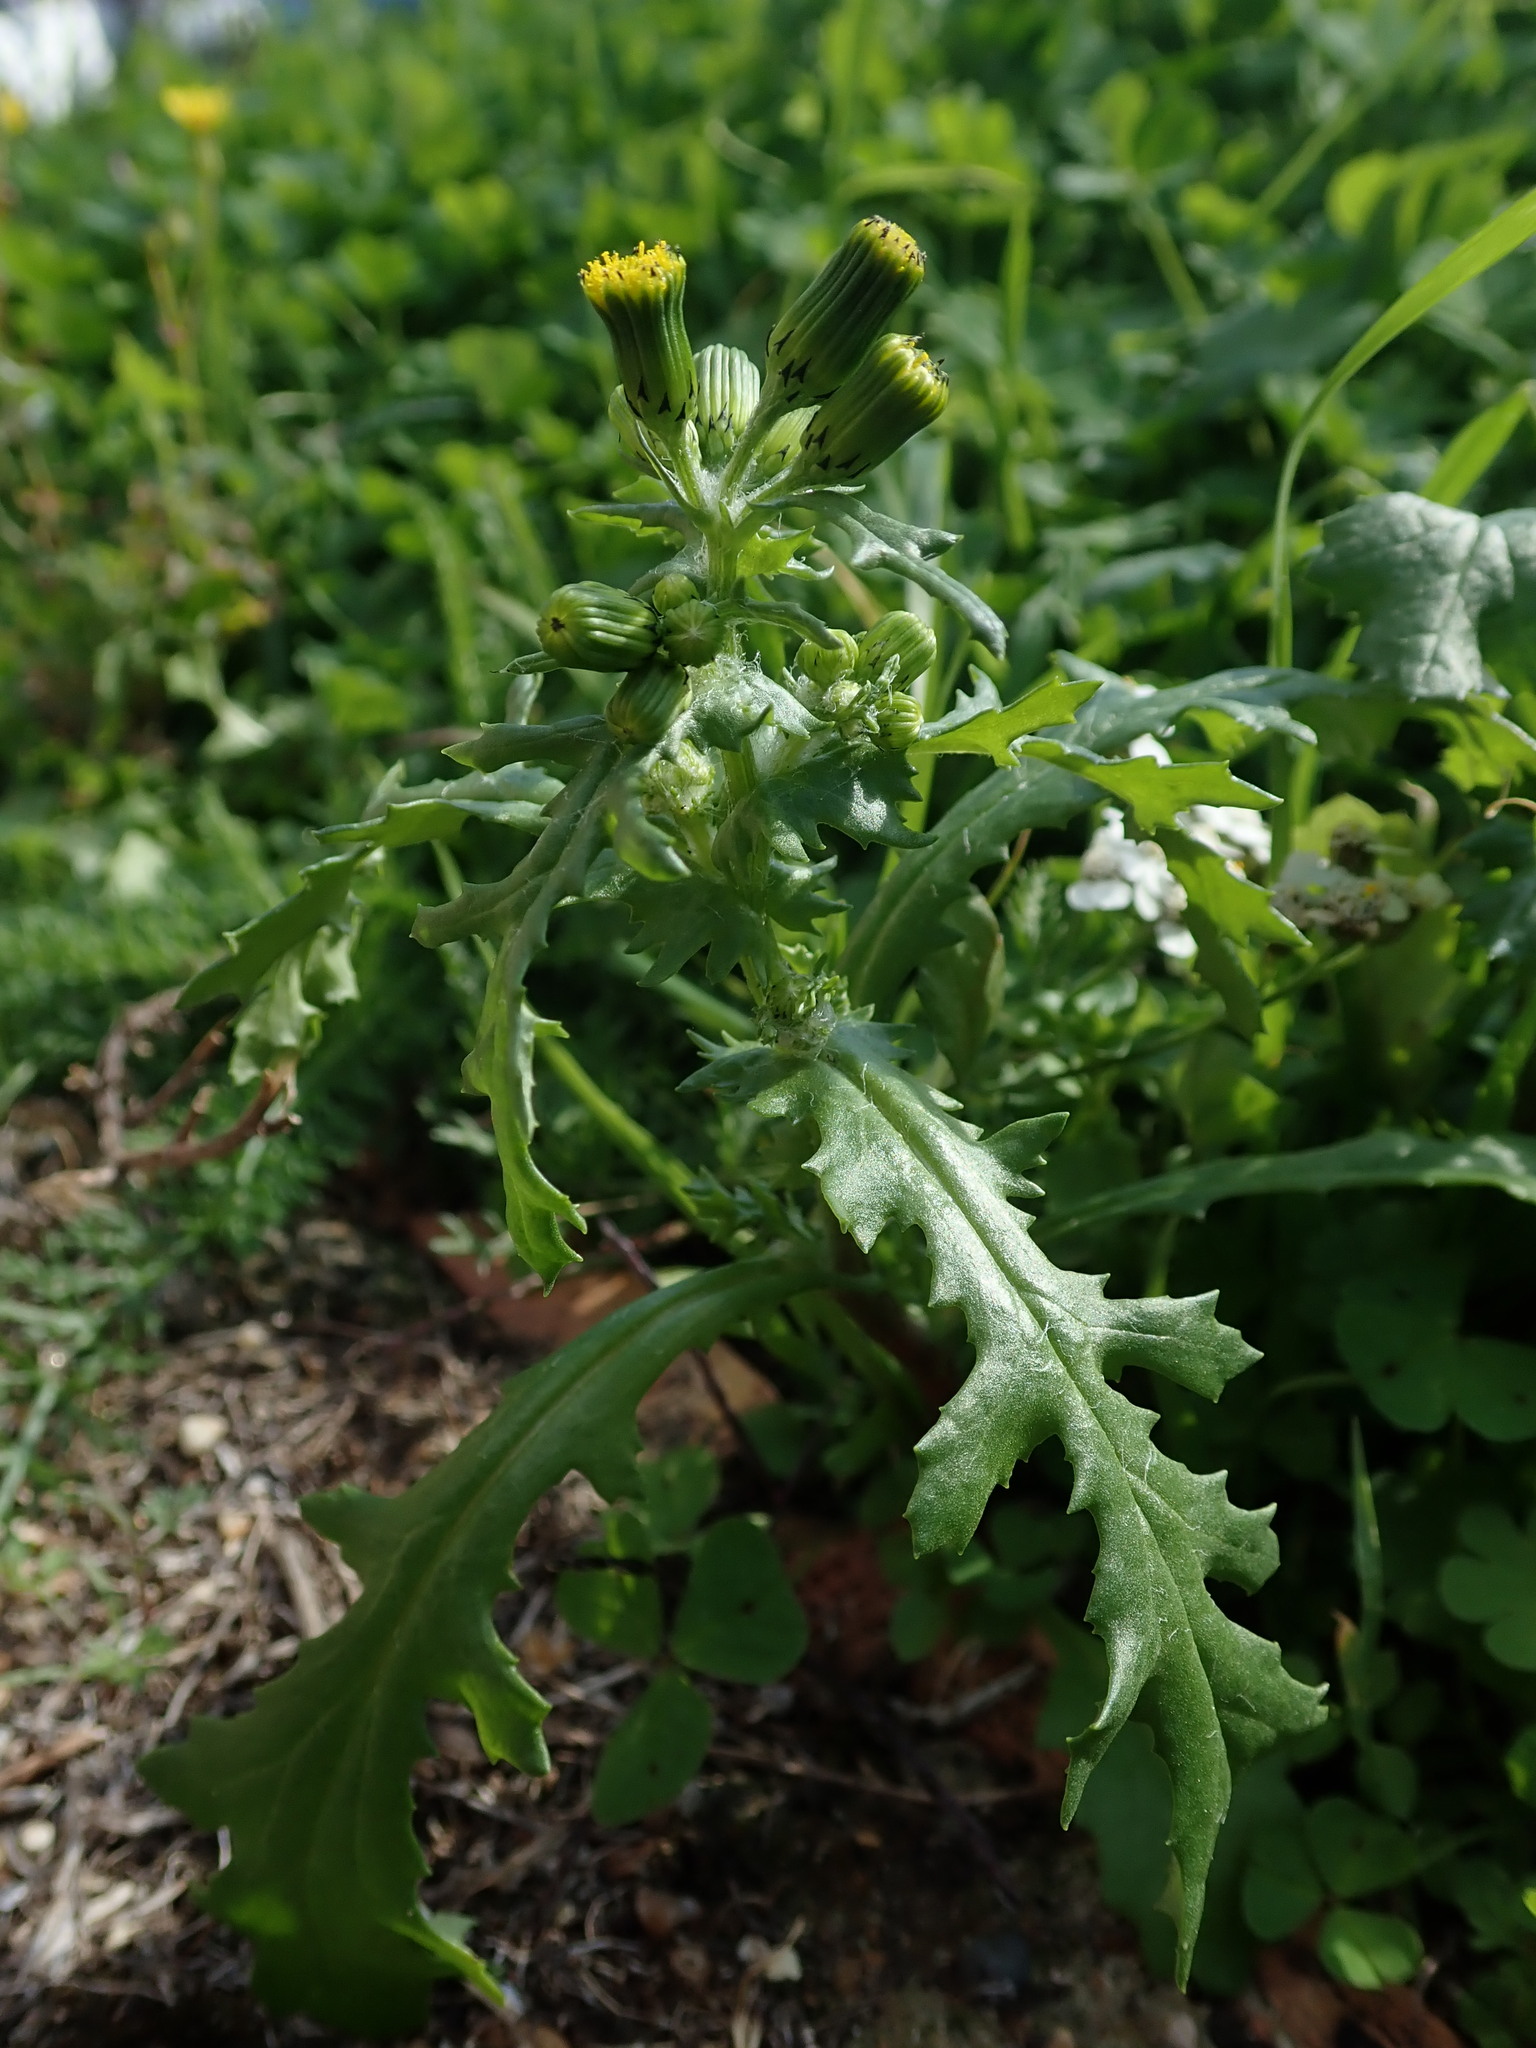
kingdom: Plantae
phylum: Tracheophyta
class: Magnoliopsida
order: Asterales
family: Asteraceae
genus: Senecio
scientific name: Senecio vulgaris
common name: Old-man-in-the-spring
